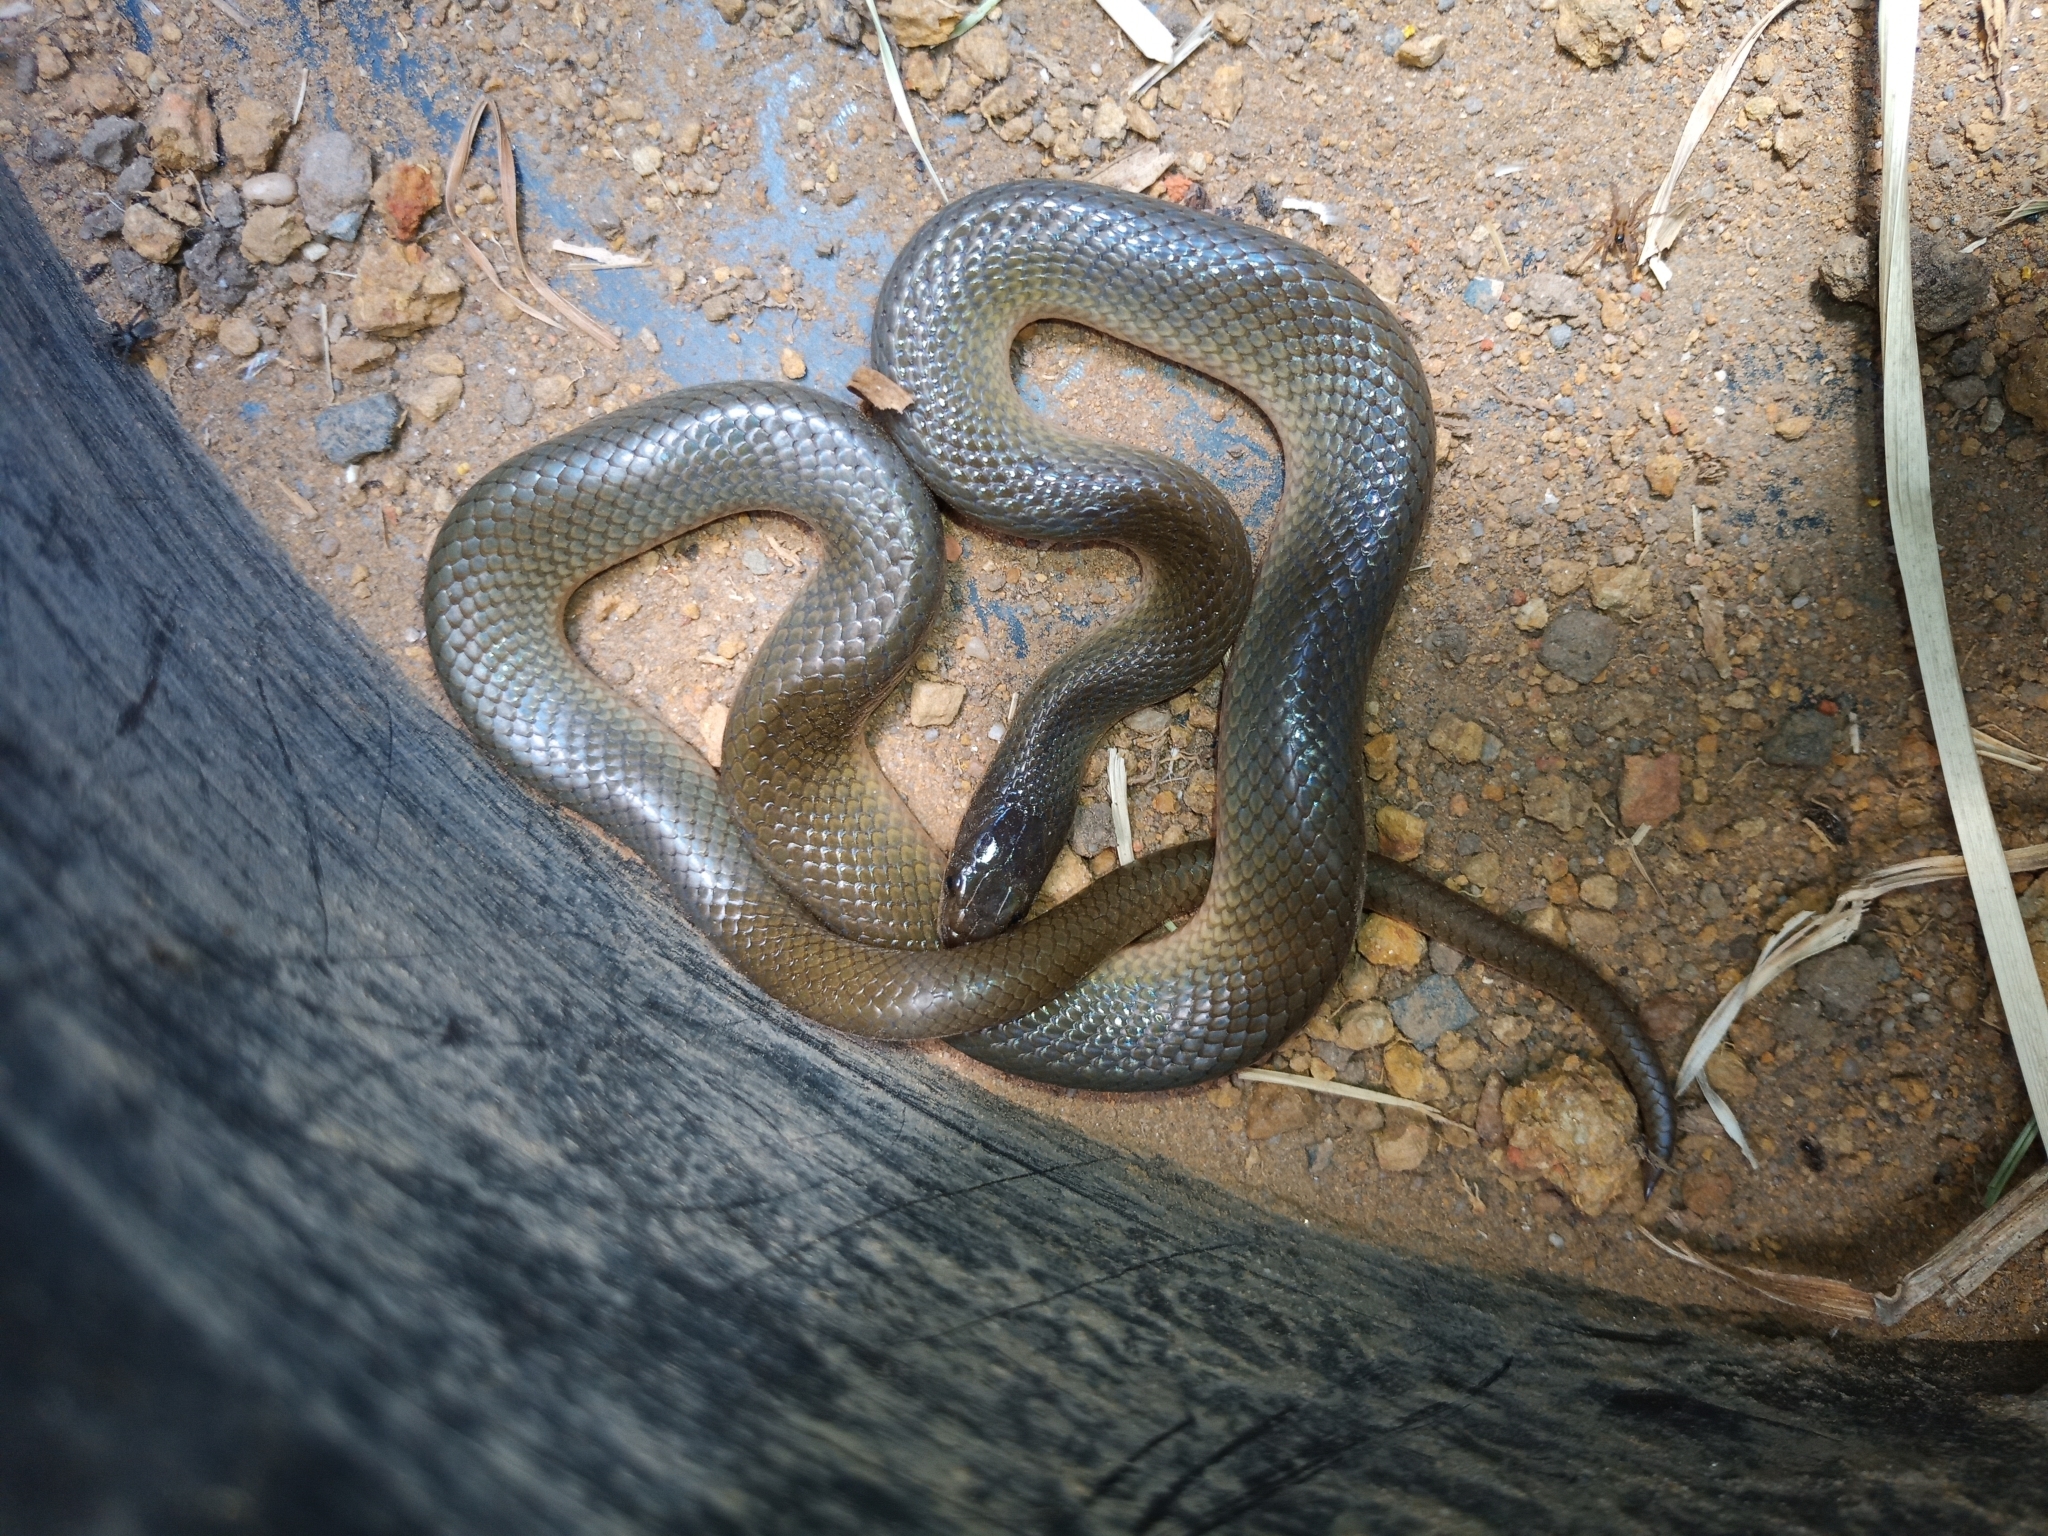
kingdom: Animalia
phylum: Chordata
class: Squamata
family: Lamprophiidae
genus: Lycodonomorphus
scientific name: Lycodonomorphus rufulus
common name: Brown water snake
